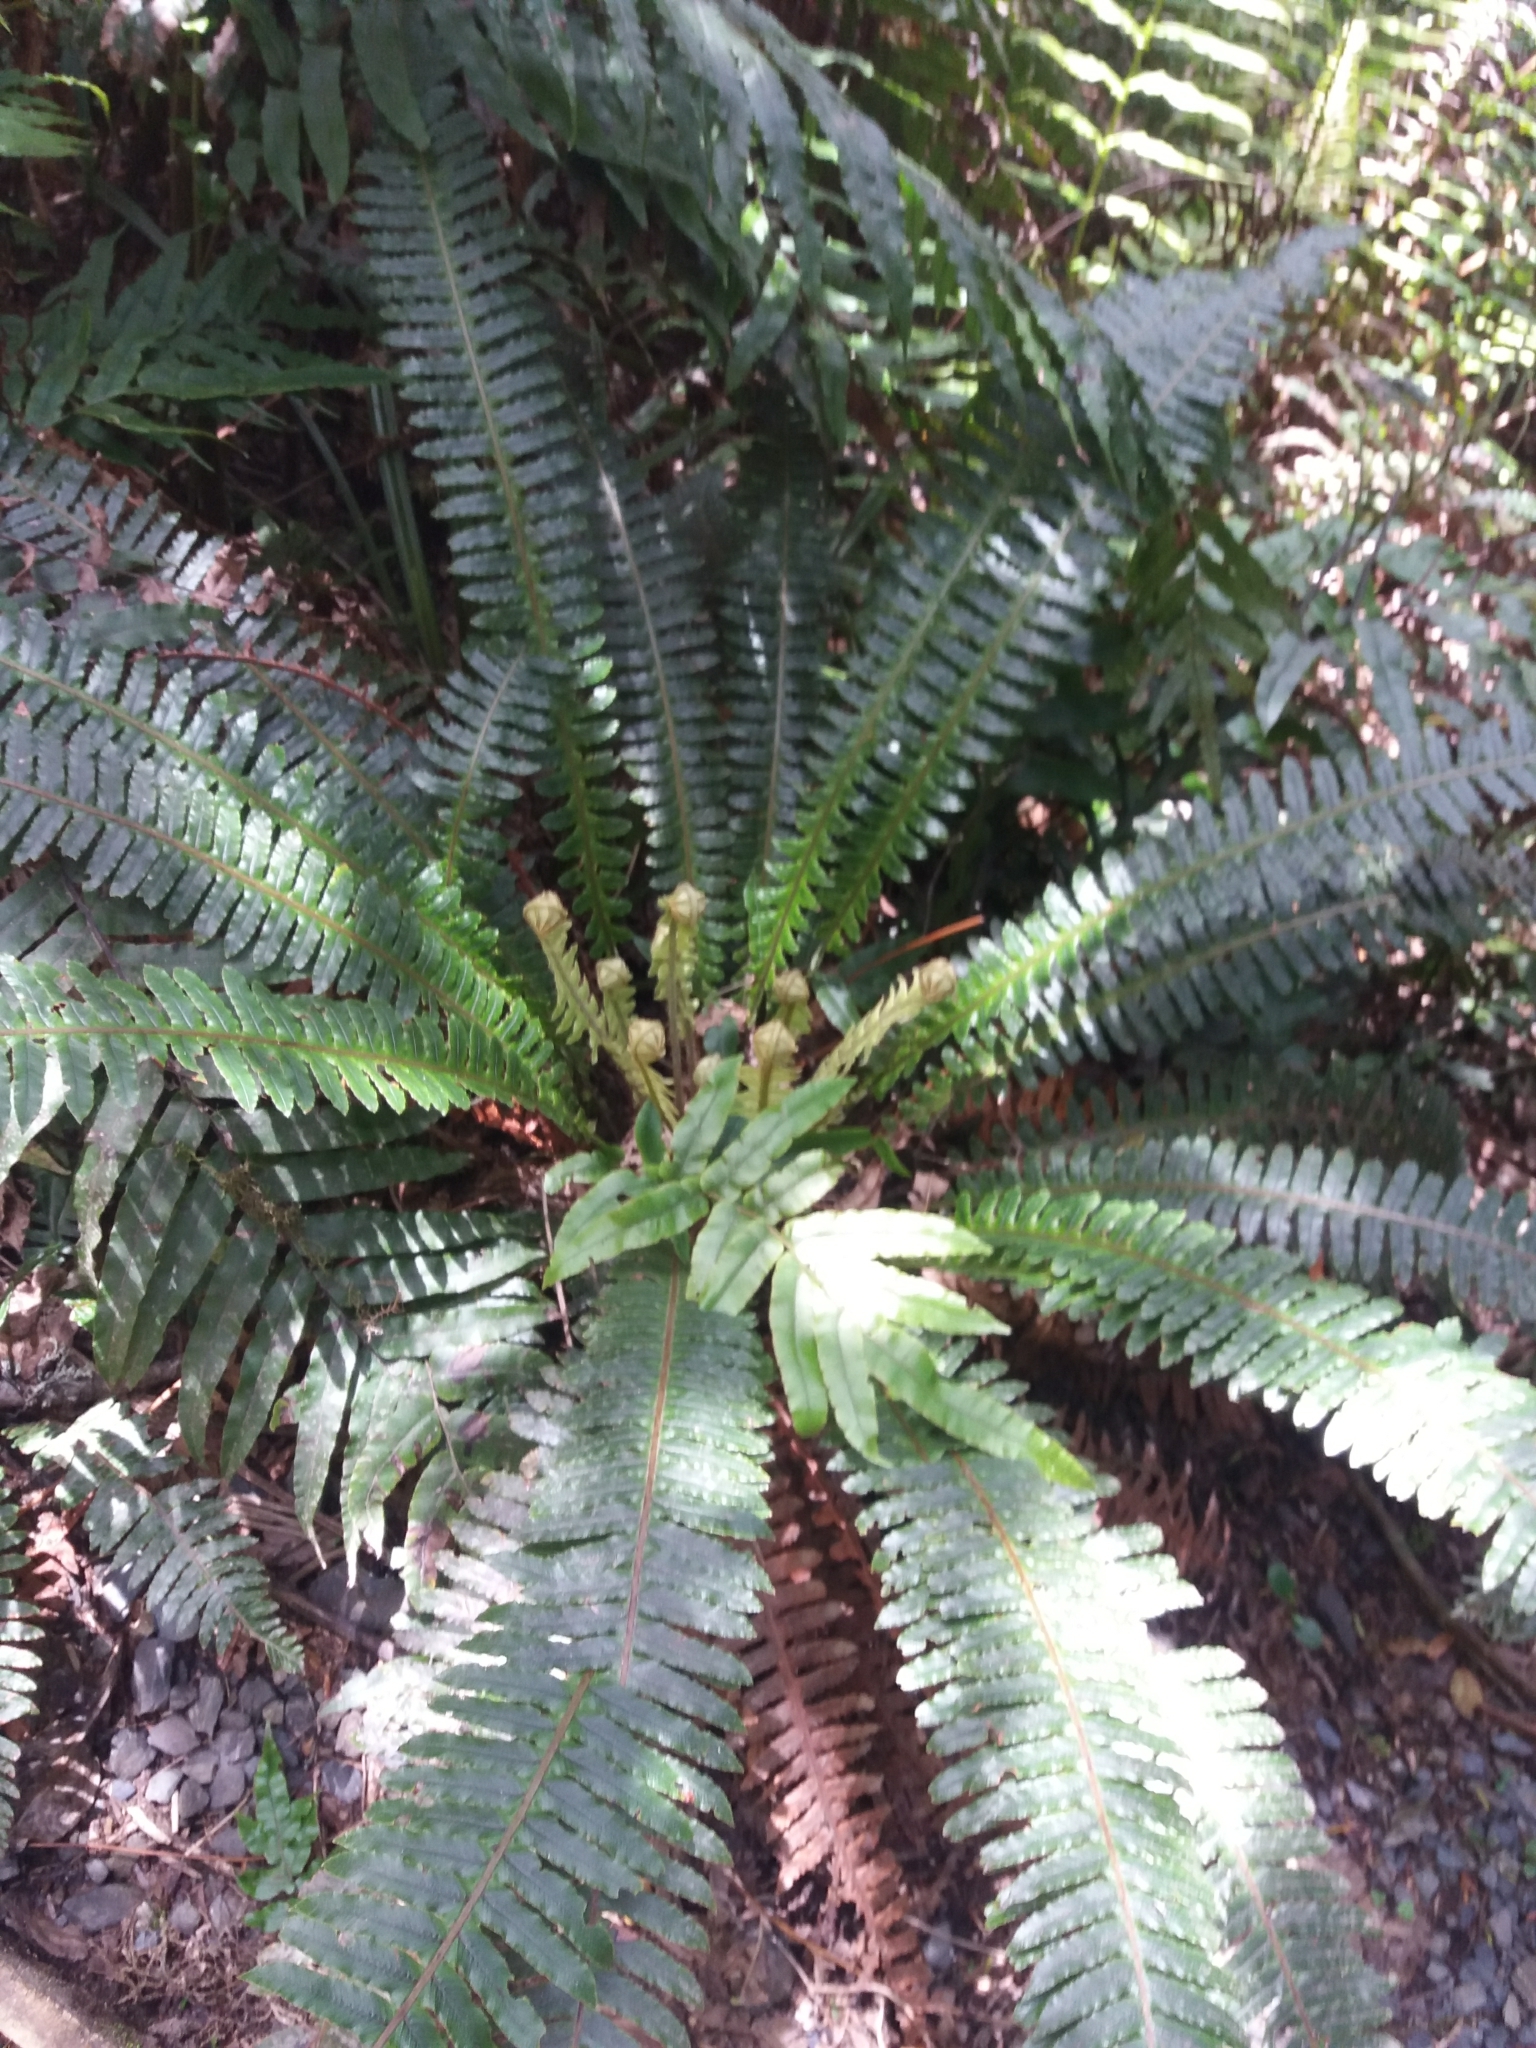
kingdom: Plantae
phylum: Tracheophyta
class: Polypodiopsida
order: Polypodiales
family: Blechnaceae
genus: Lomaria
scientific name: Lomaria discolor
